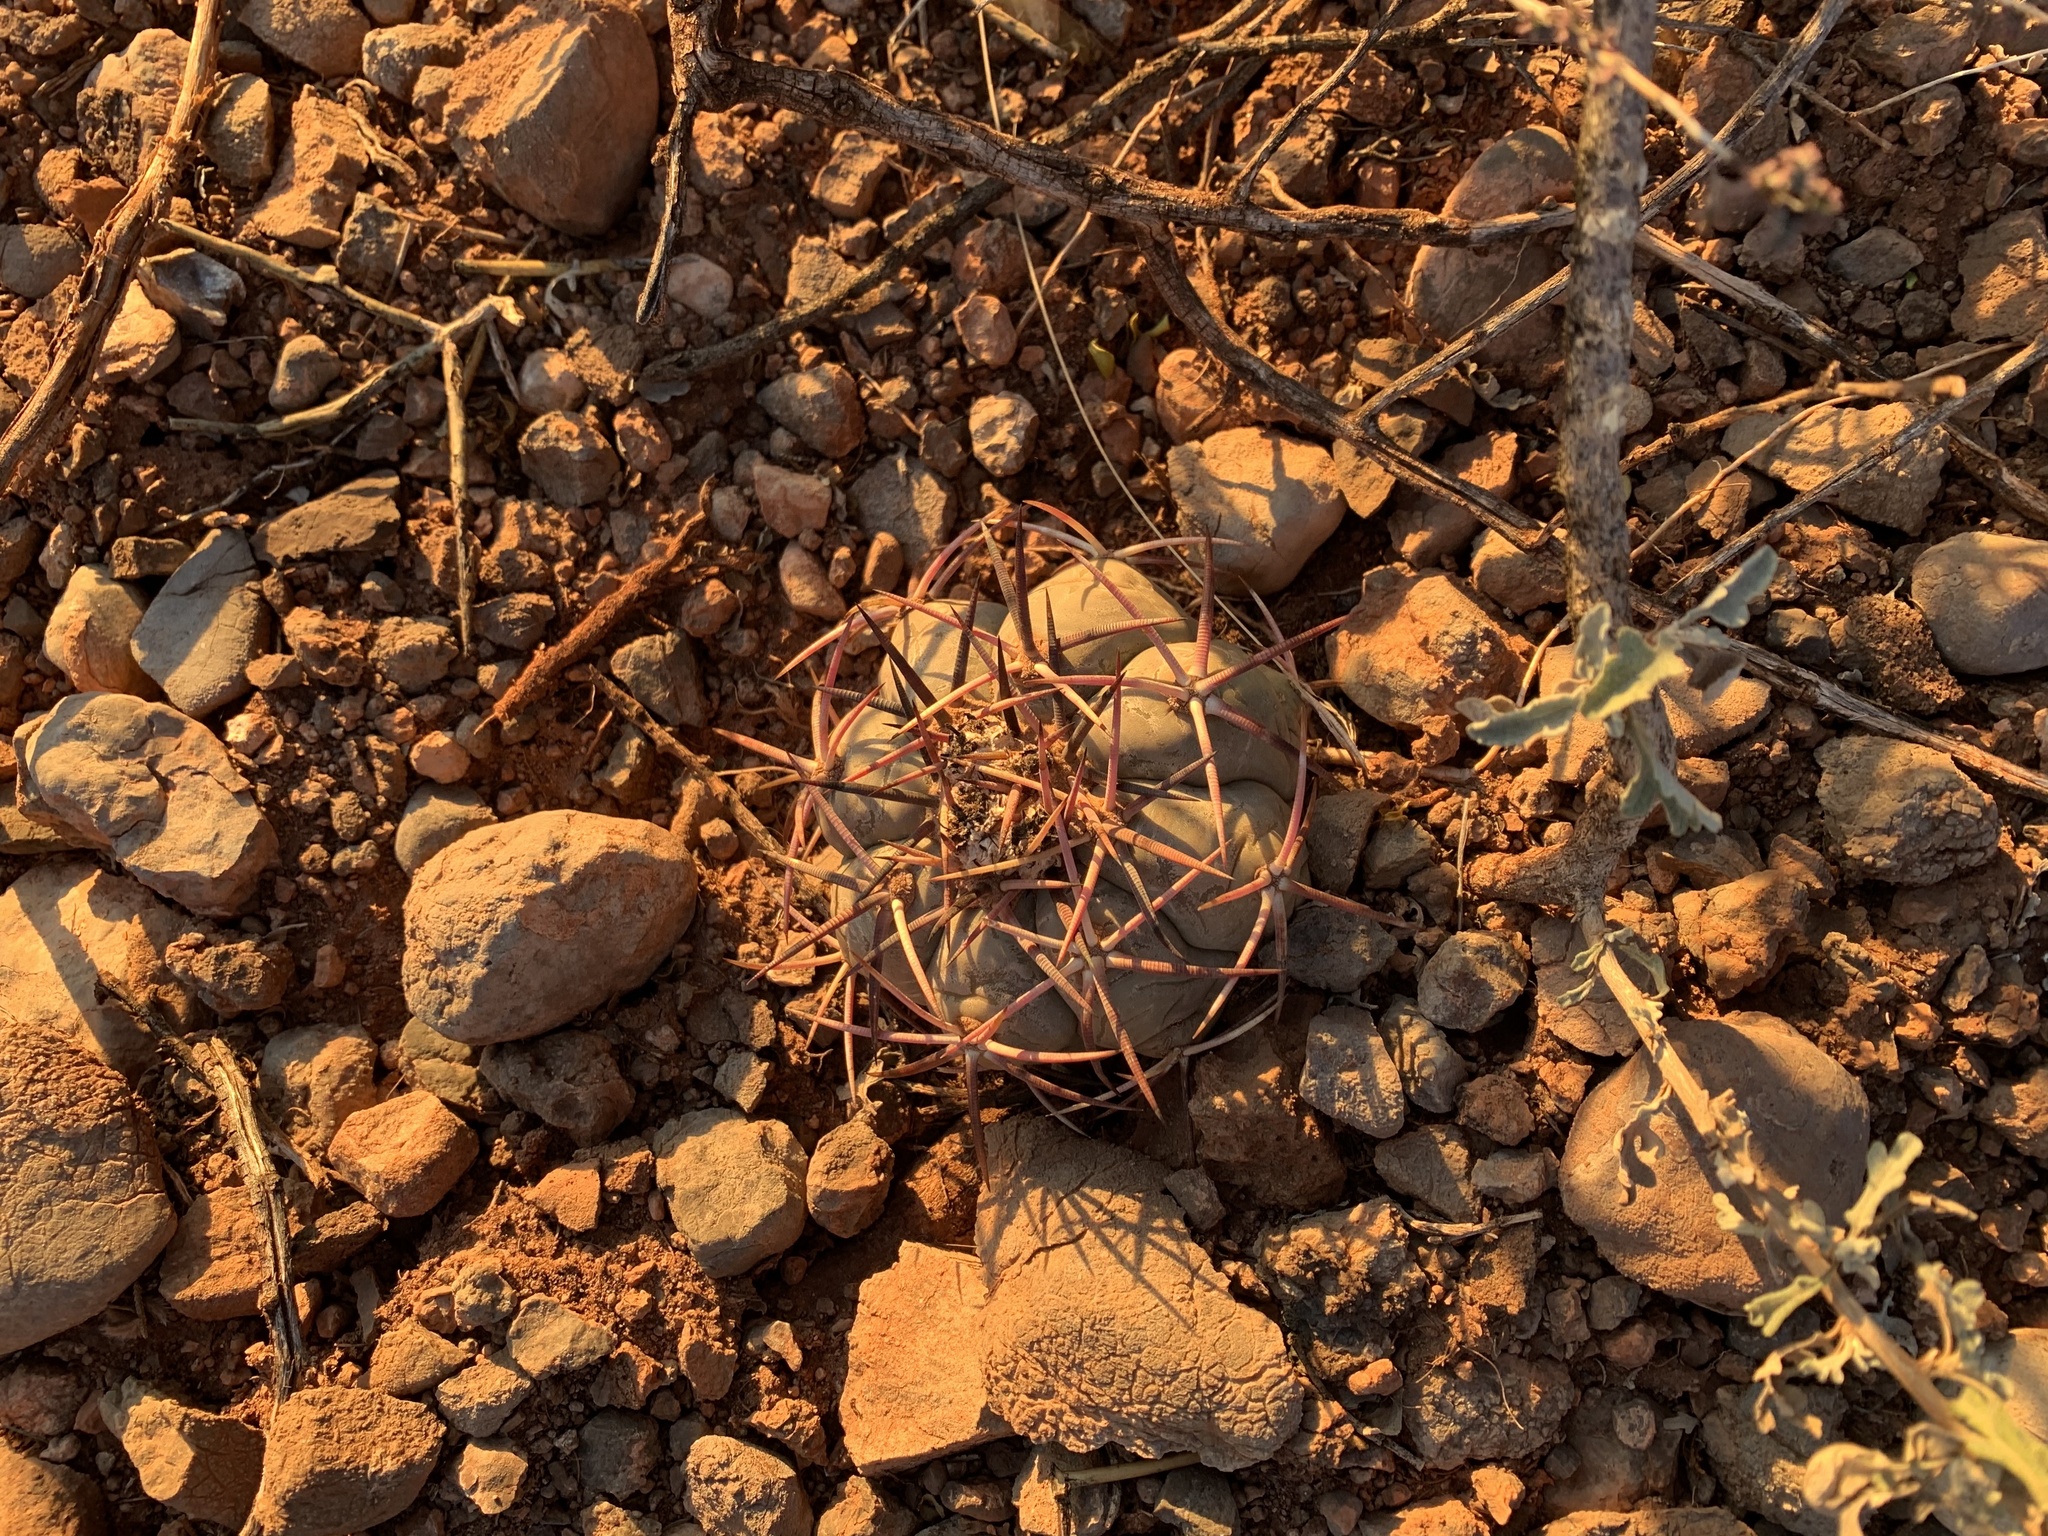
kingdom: Plantae
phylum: Tracheophyta
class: Magnoliopsida
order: Caryophyllales
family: Cactaceae
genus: Echinocactus
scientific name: Echinocactus horizonthalonius
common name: Devilshead
